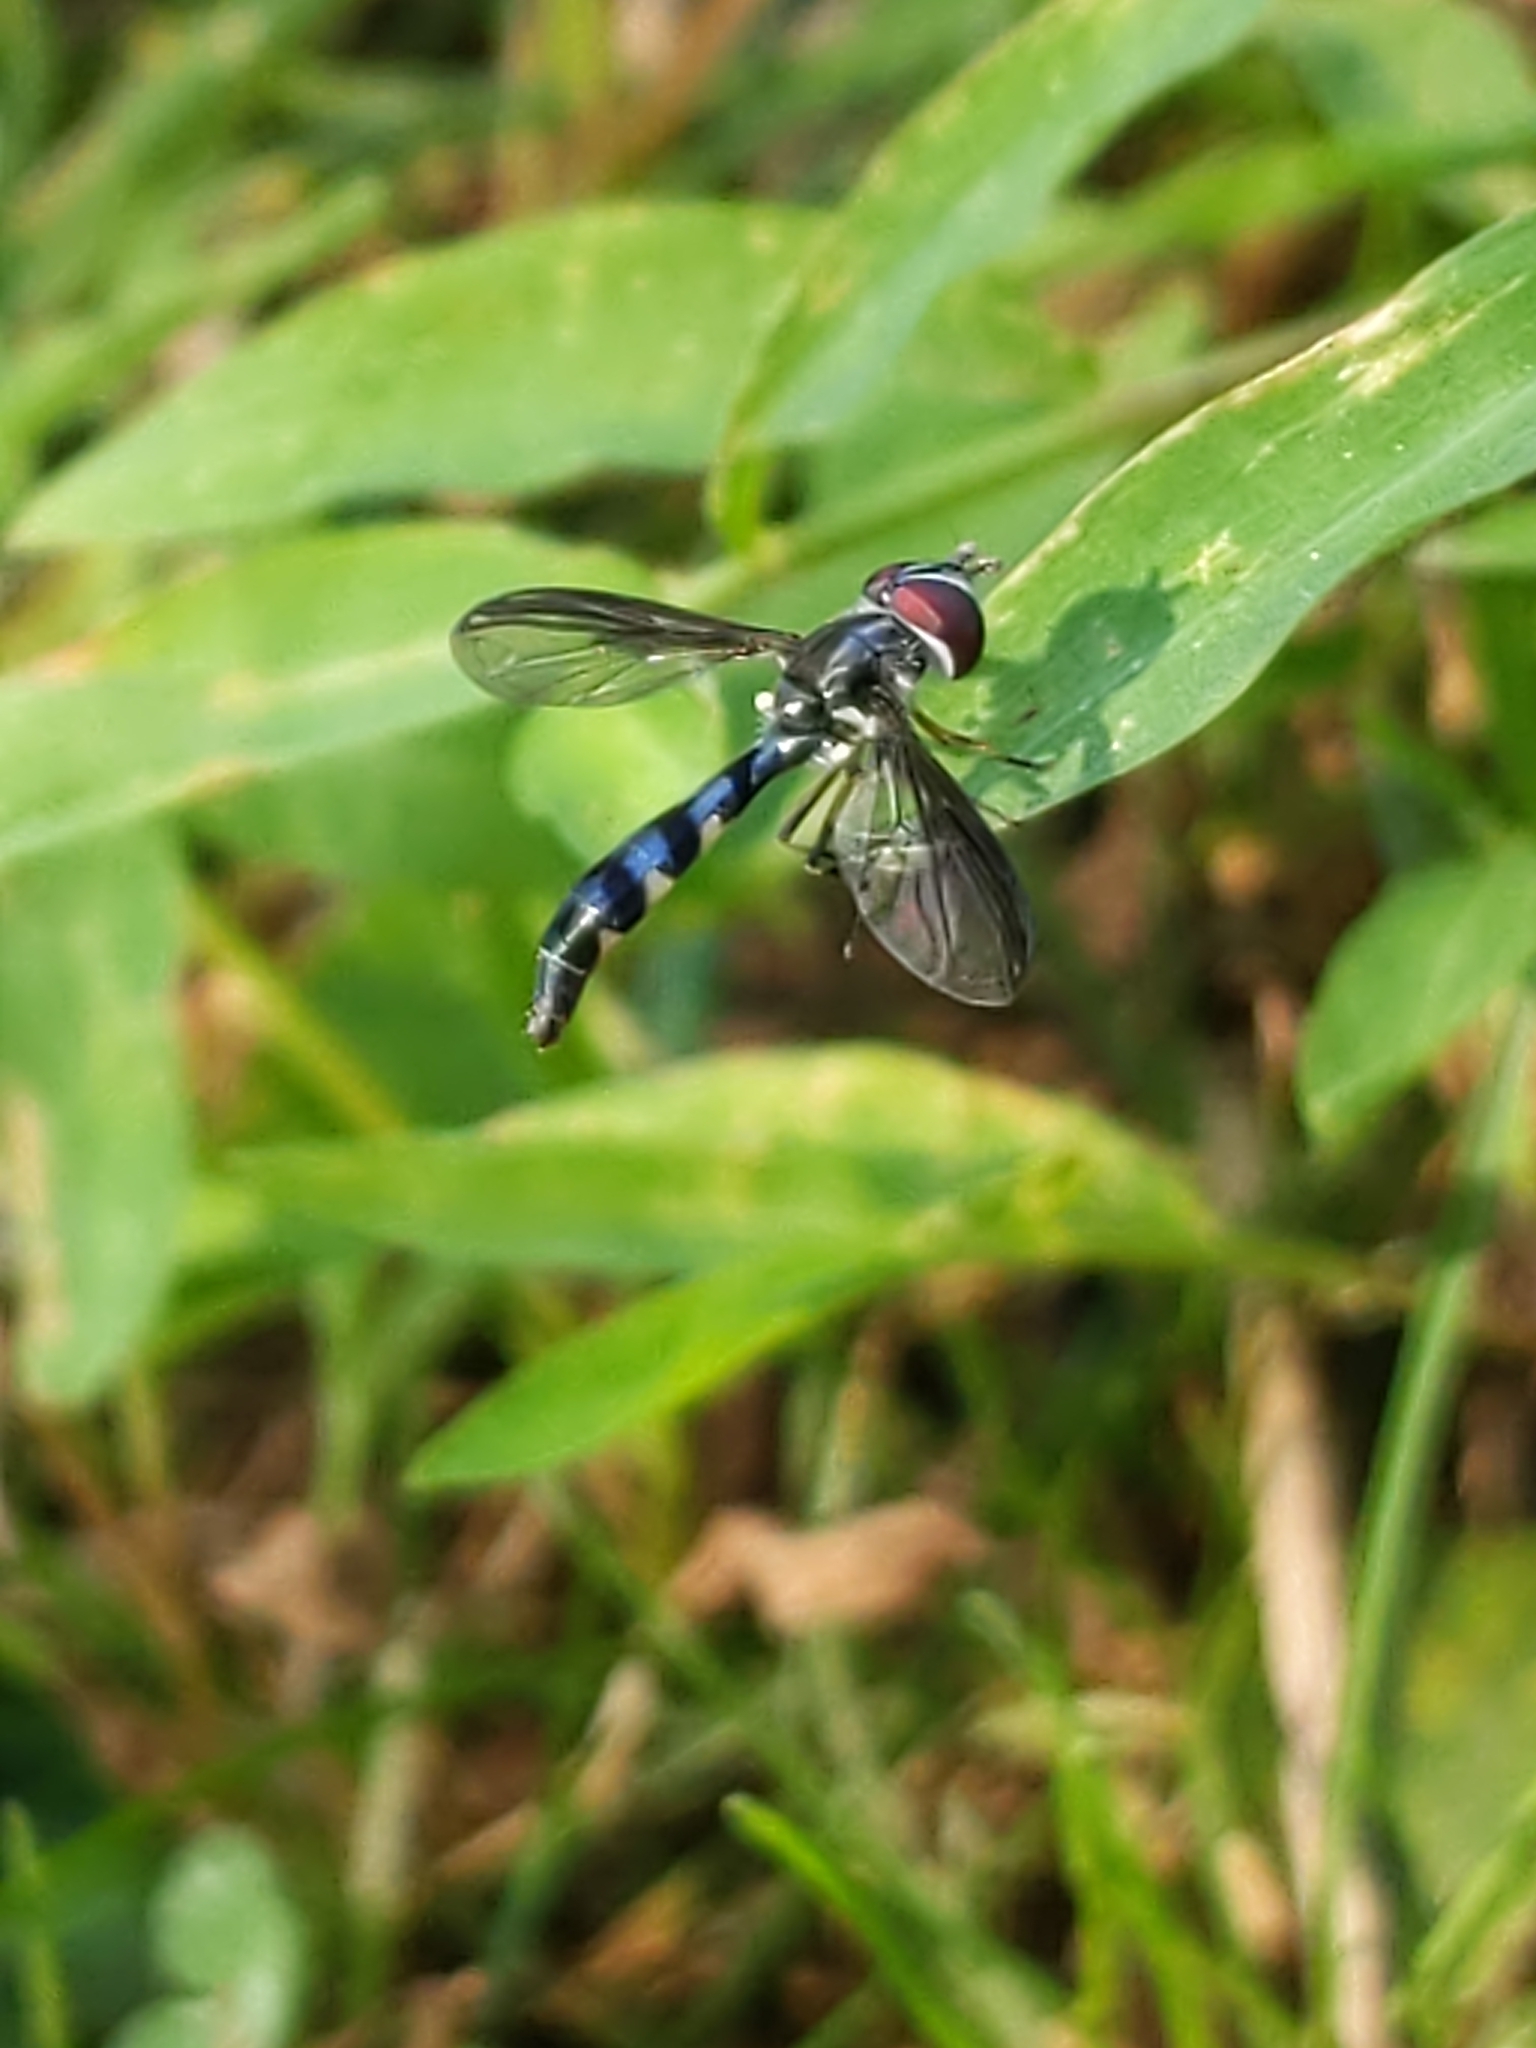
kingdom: Animalia
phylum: Arthropoda
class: Insecta
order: Diptera
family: Syrphidae
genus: Ocyptamus
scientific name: Ocyptamus costatus
